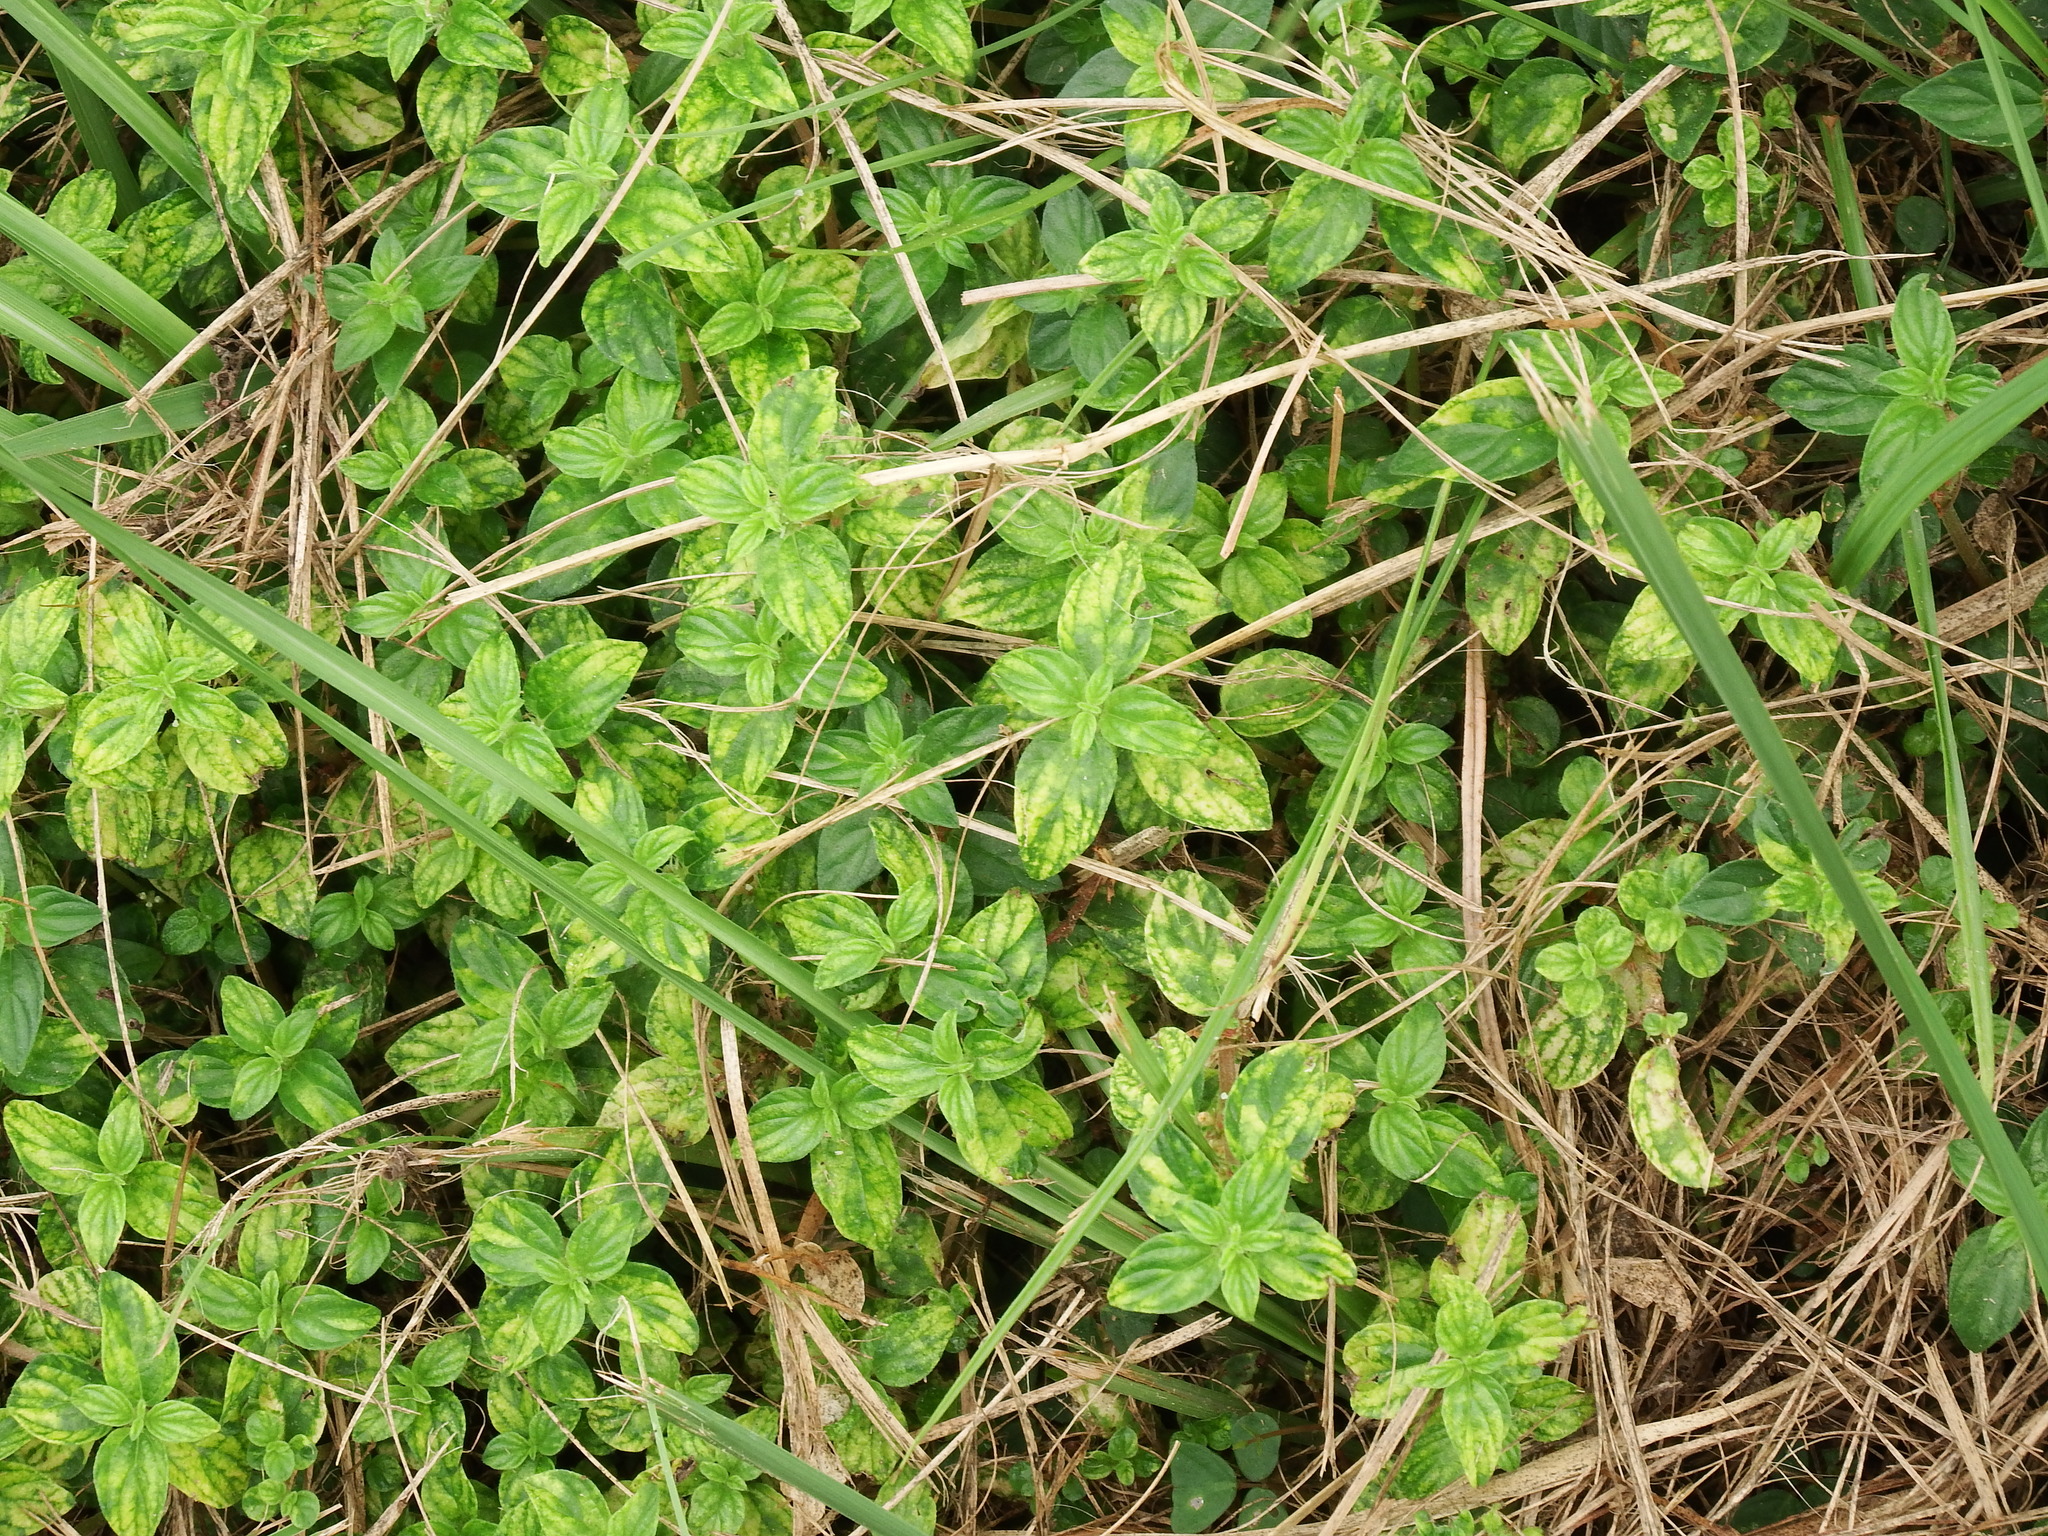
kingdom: Plantae
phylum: Tracheophyta
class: Magnoliopsida
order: Rosales
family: Urticaceae
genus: Pouzolzia
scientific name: Pouzolzia zeylanica
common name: Graceful pouzolzsbush
